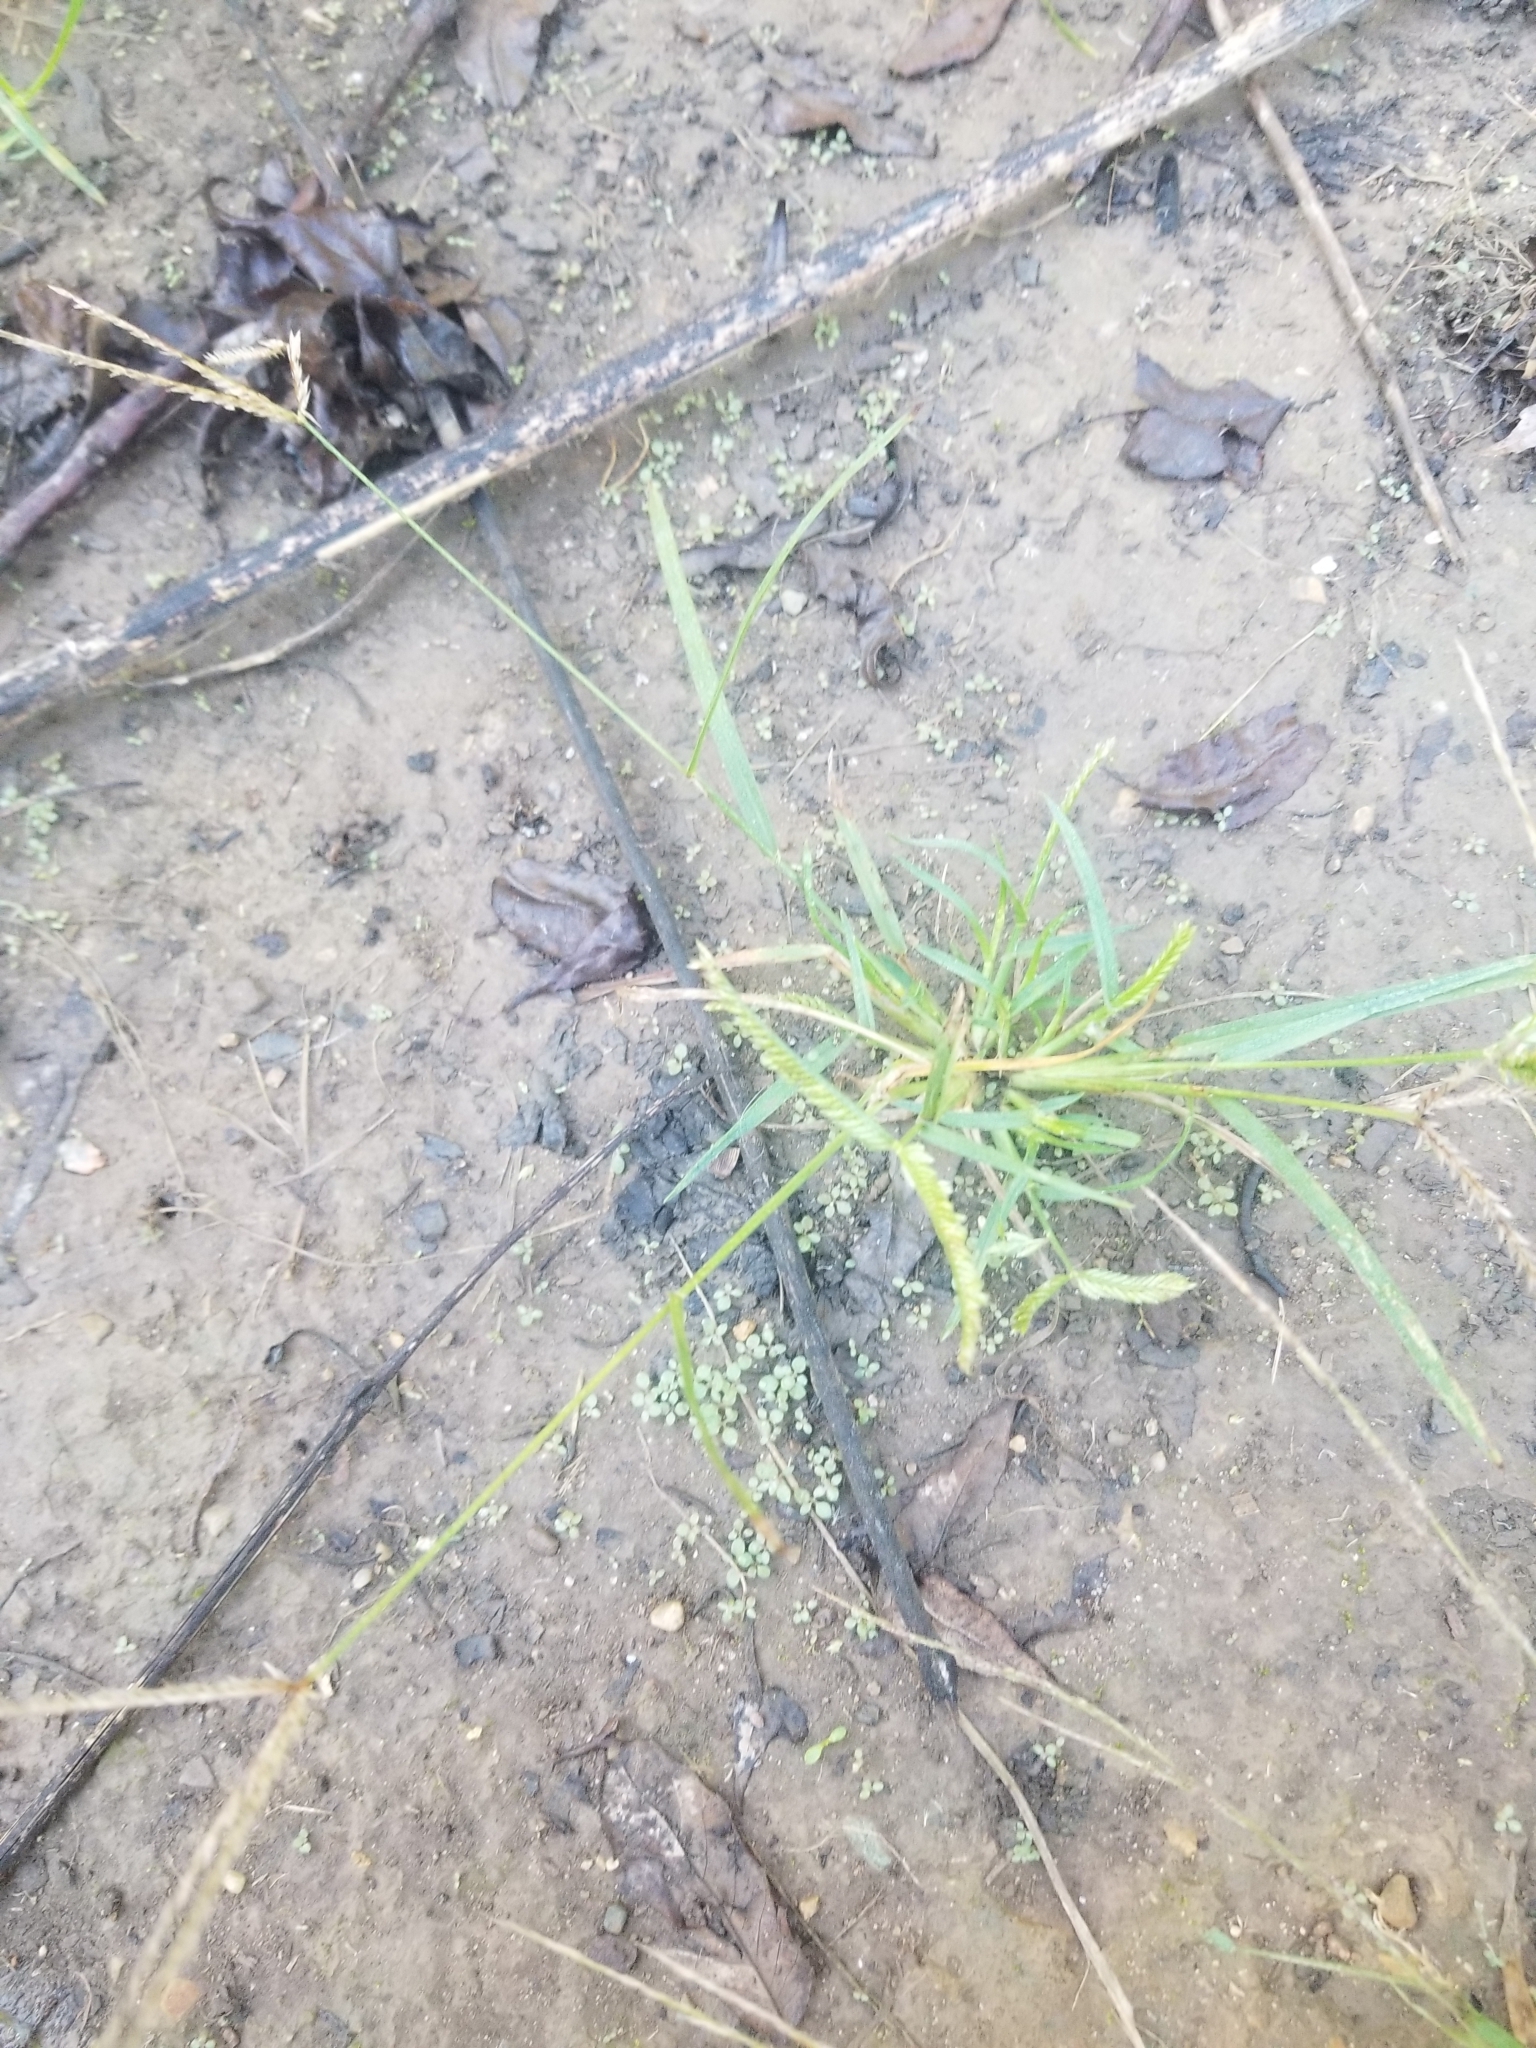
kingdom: Plantae
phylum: Tracheophyta
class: Liliopsida
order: Poales
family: Poaceae
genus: Eleusine
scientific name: Eleusine indica
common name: Yard-grass
